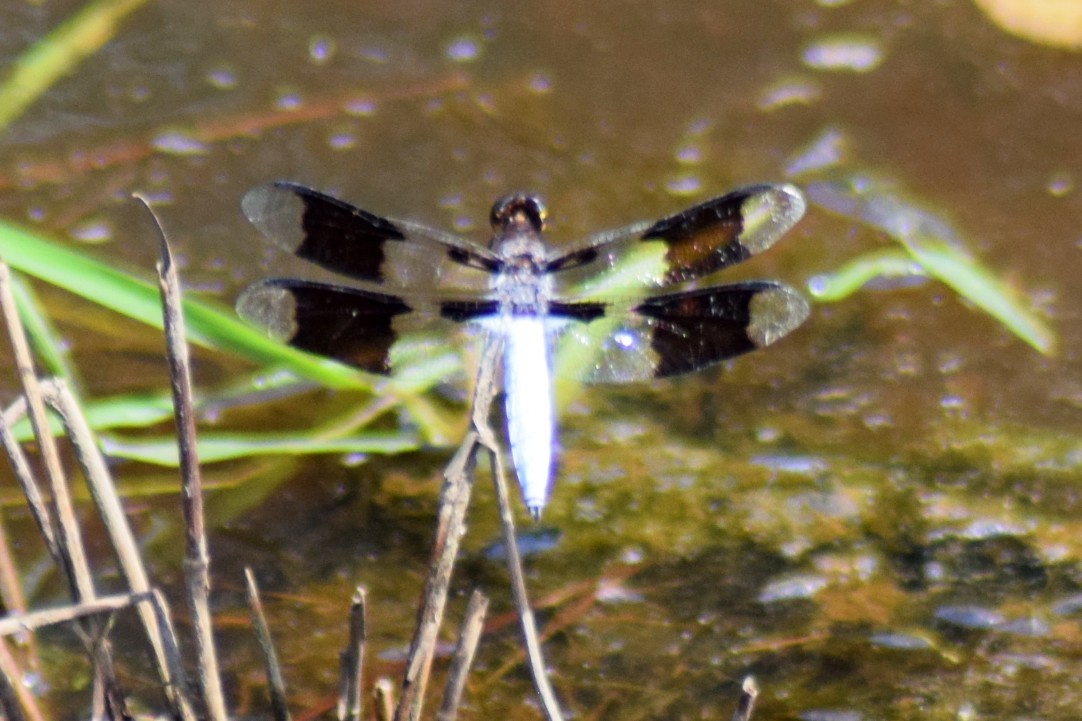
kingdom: Animalia
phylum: Arthropoda
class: Insecta
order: Odonata
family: Libellulidae
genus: Plathemis
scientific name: Plathemis lydia
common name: Common whitetail
